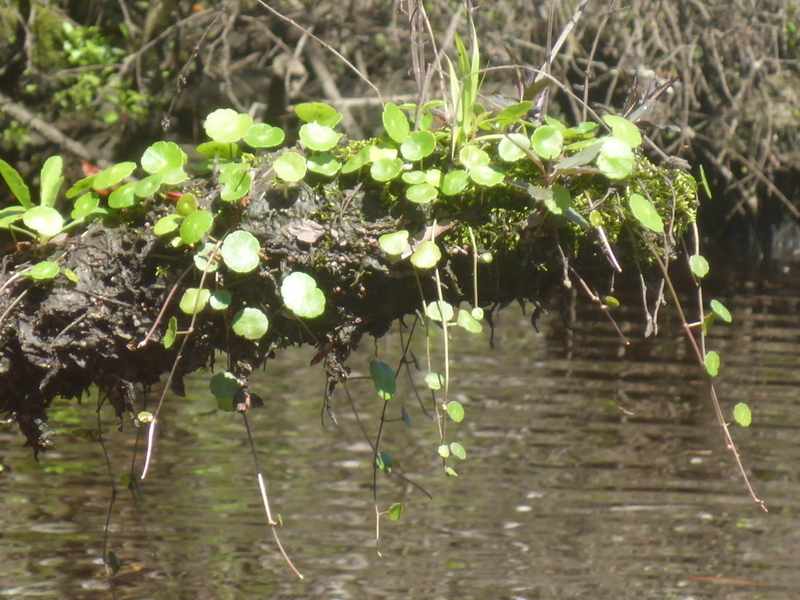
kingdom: Plantae
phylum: Tracheophyta
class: Magnoliopsida
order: Apiales
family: Araliaceae
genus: Hydrocotyle
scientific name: Hydrocotyle
